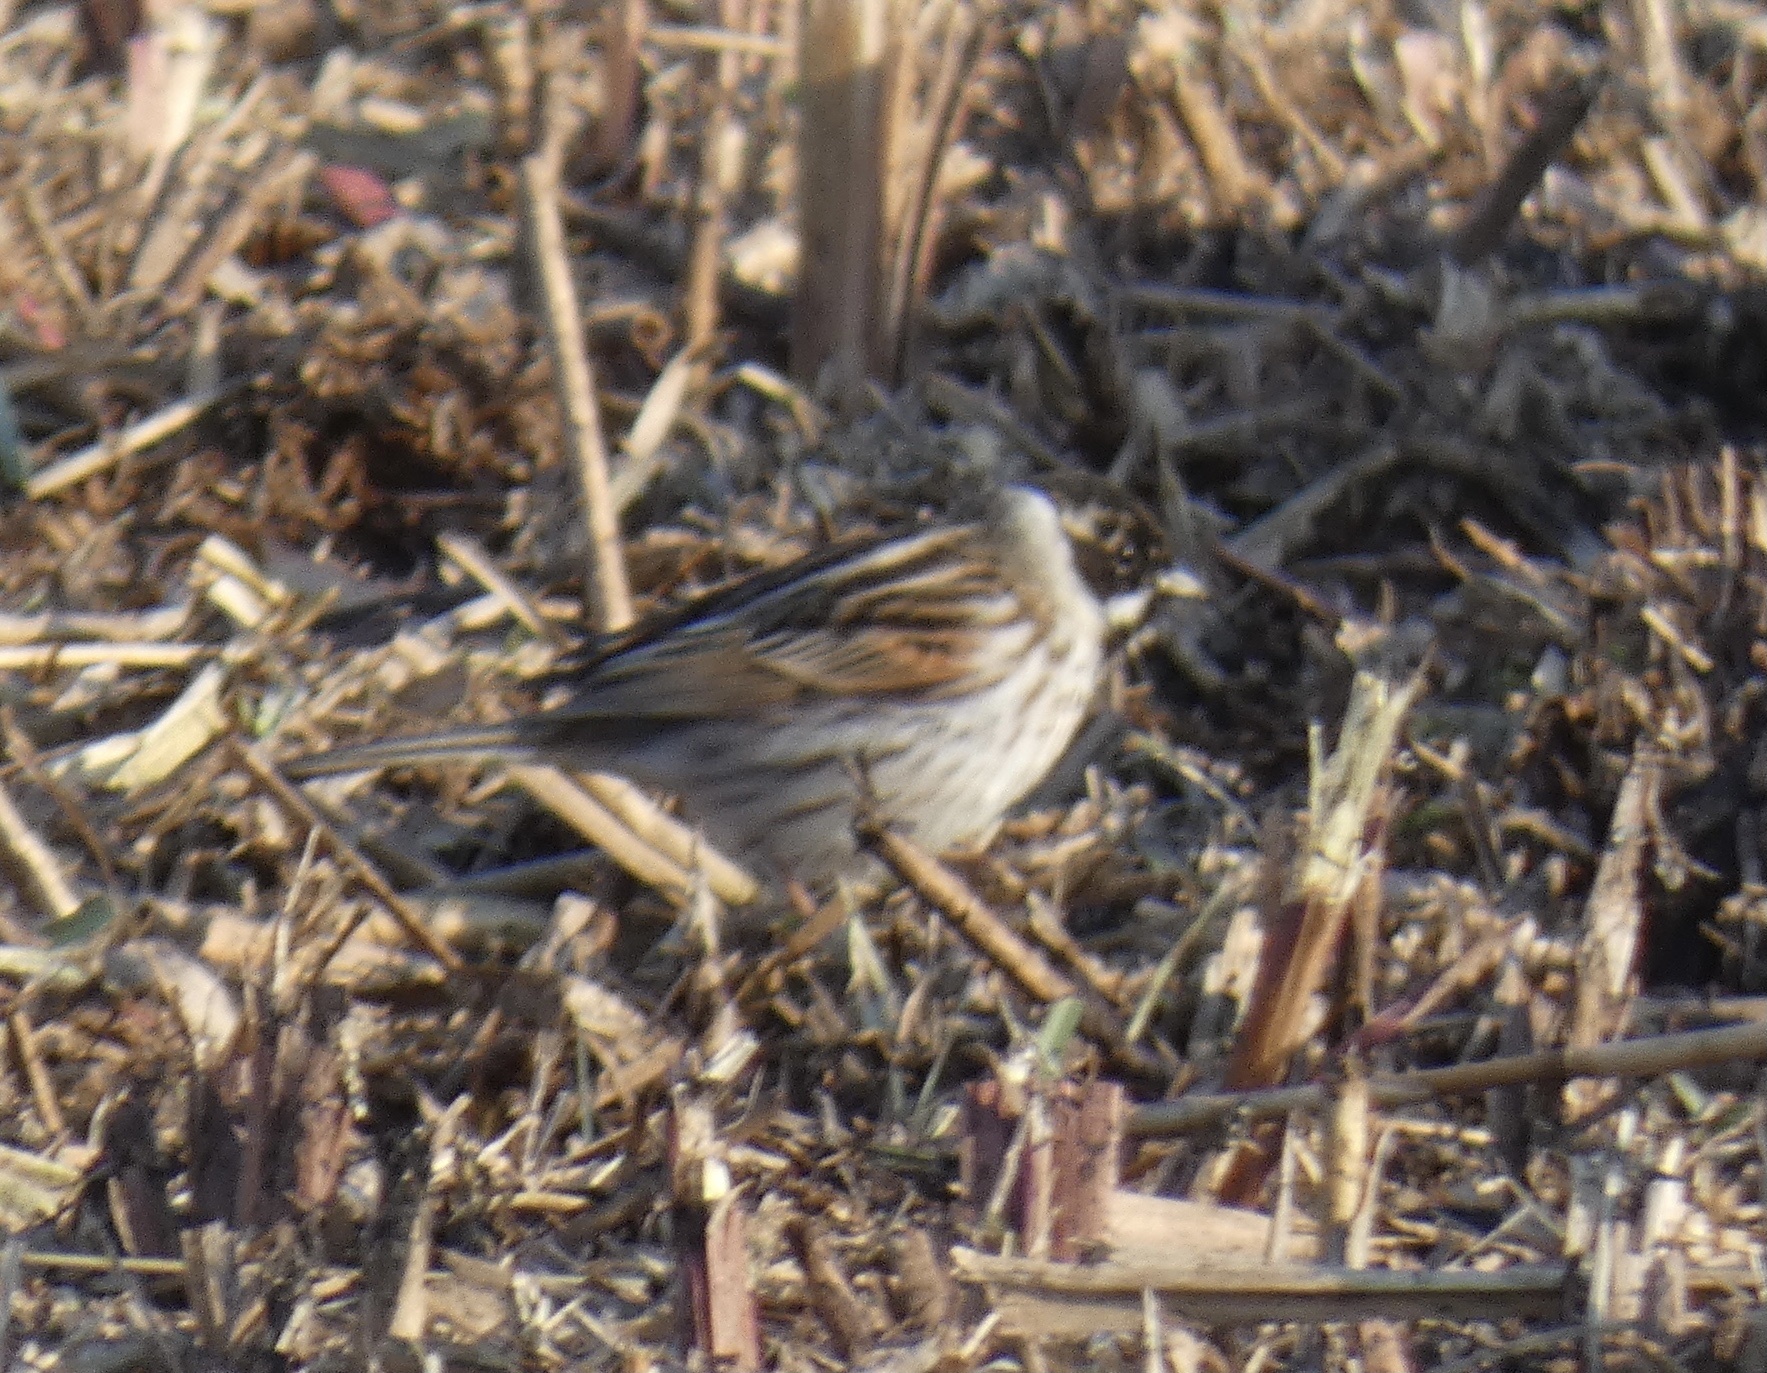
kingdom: Animalia
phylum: Chordata
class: Aves
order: Passeriformes
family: Emberizidae
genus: Emberiza
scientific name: Emberiza schoeniclus
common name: Reed bunting
